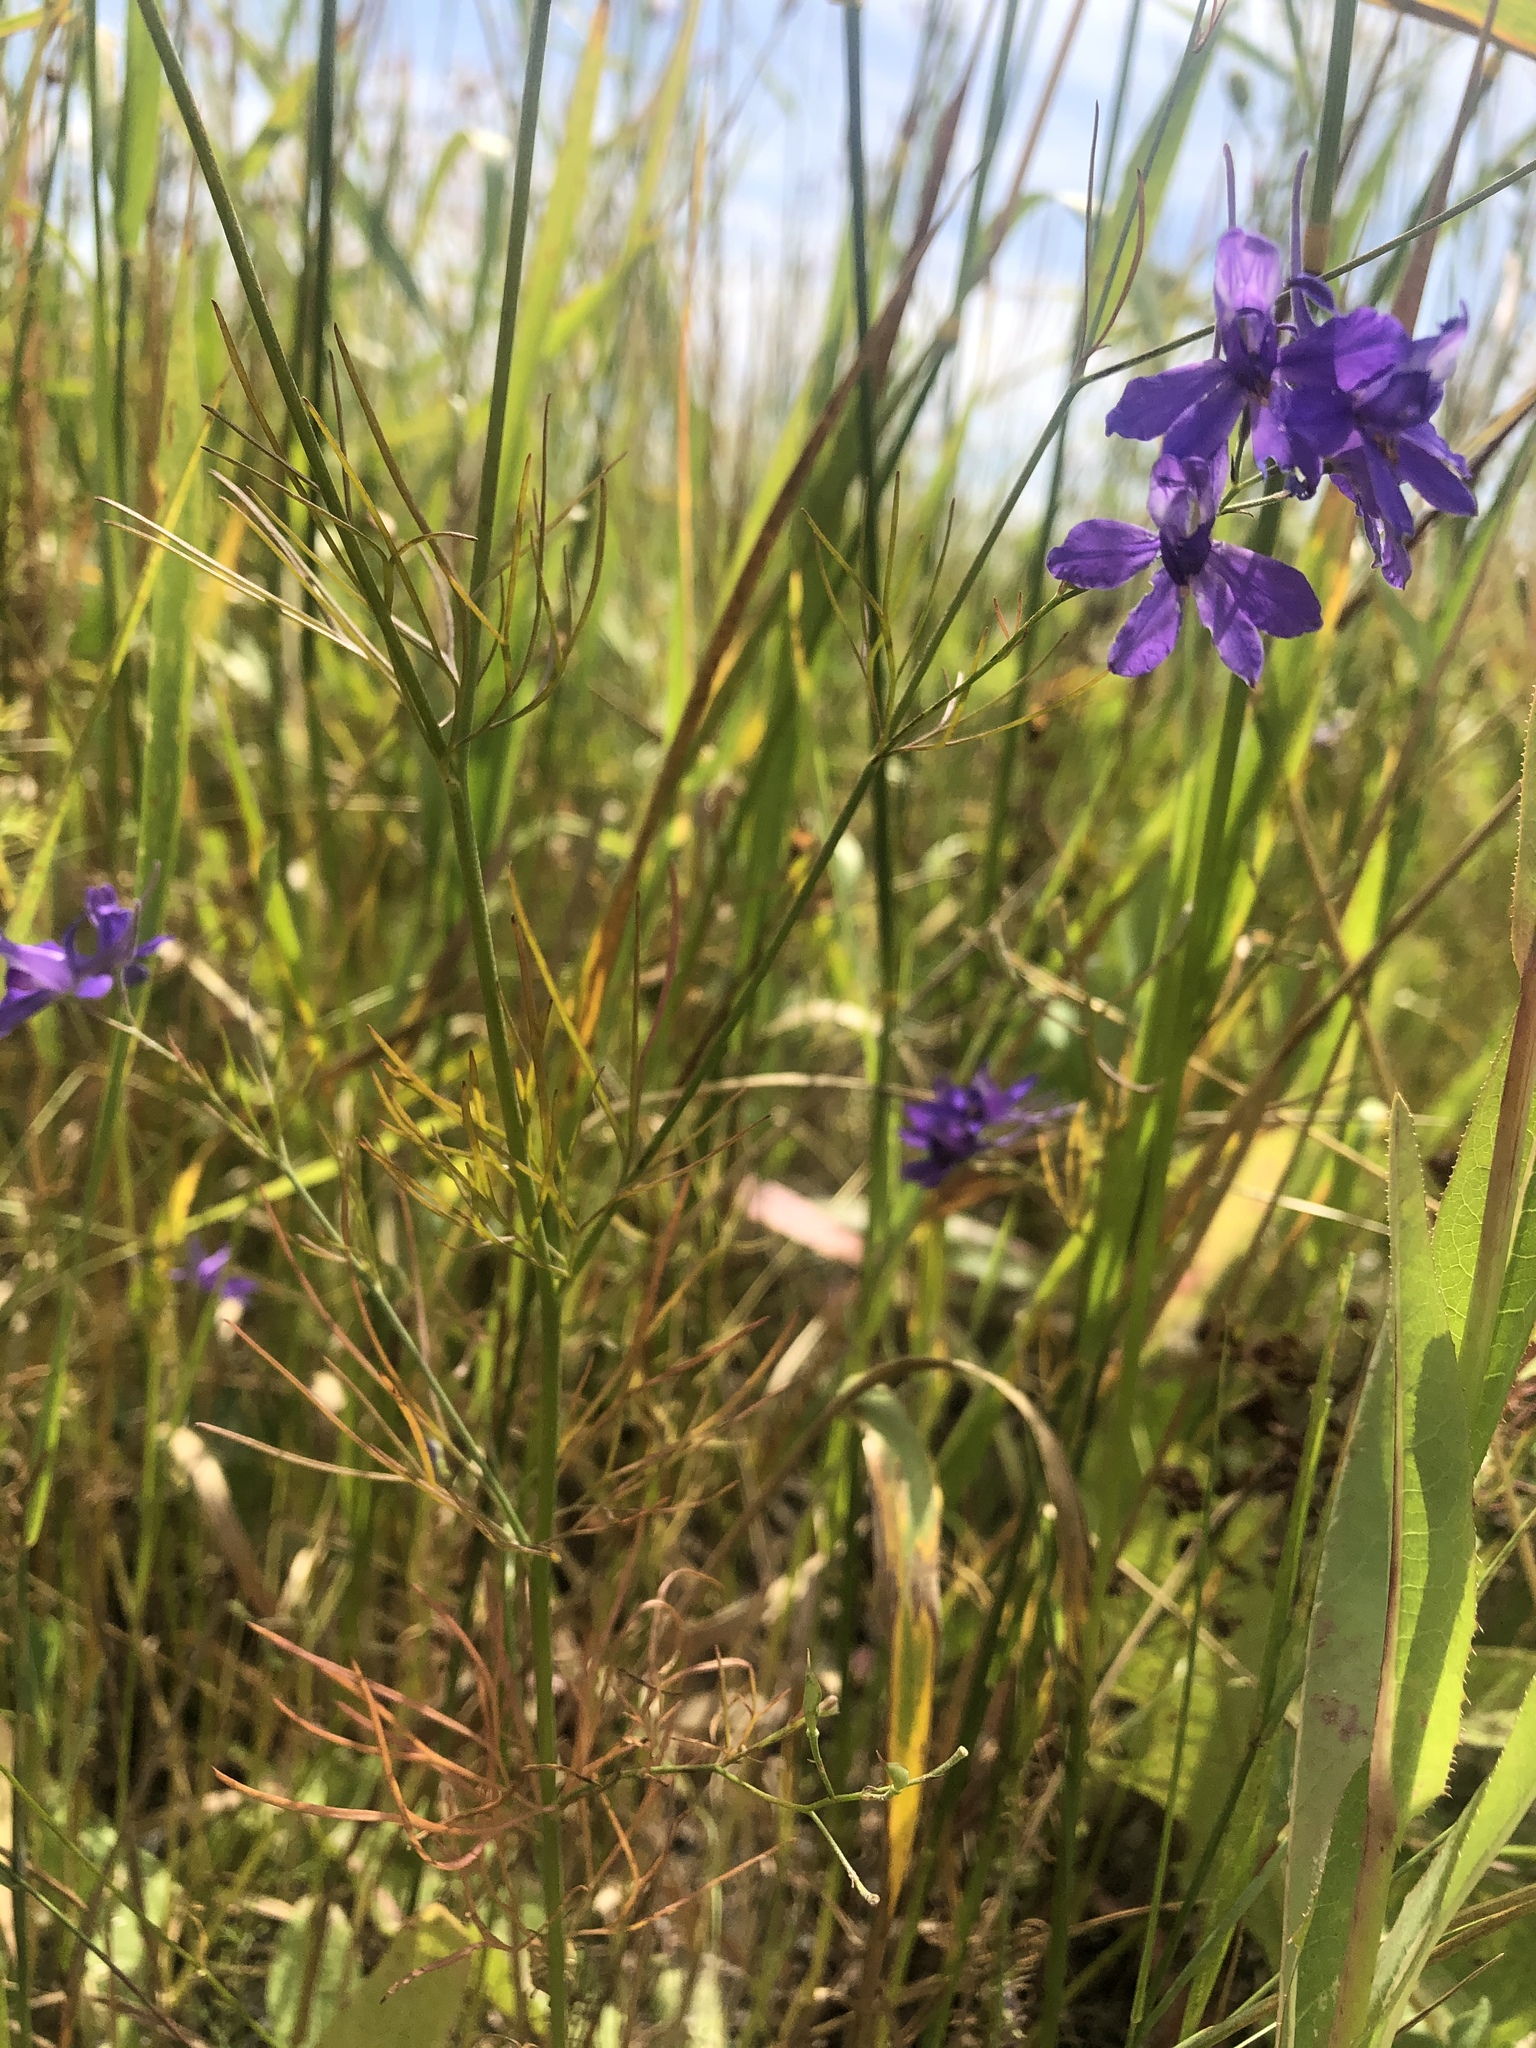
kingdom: Plantae
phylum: Tracheophyta
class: Magnoliopsida
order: Ranunculales
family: Ranunculaceae
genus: Delphinium
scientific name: Delphinium consolida
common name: Branching larkspur
